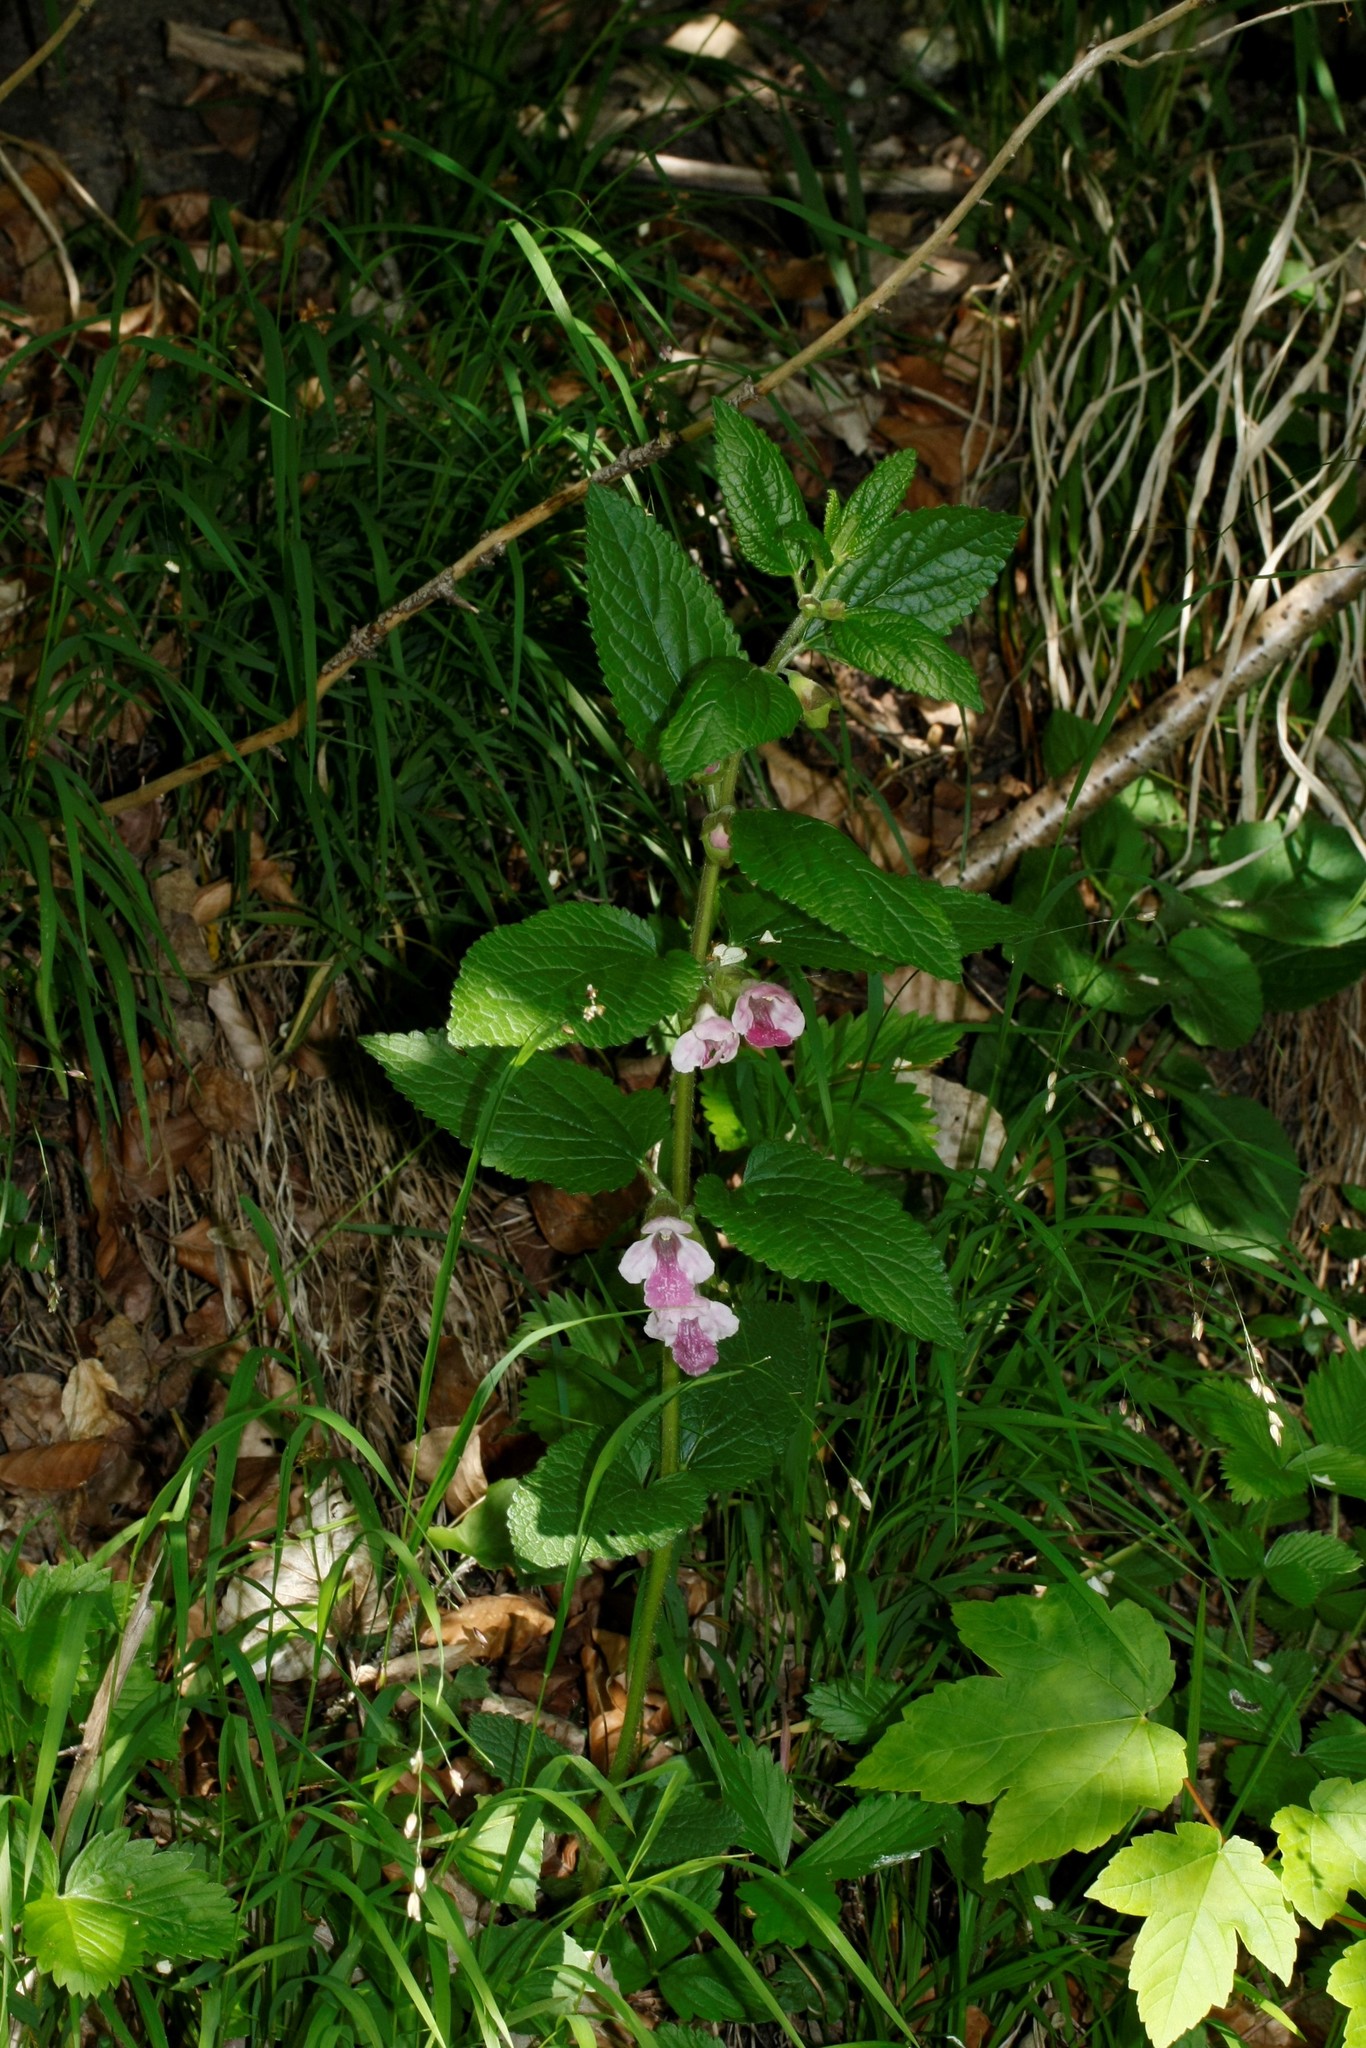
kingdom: Plantae
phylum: Tracheophyta
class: Magnoliopsida
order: Lamiales
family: Lamiaceae
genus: Melittis
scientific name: Melittis melissophyllum
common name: Bastard balm
